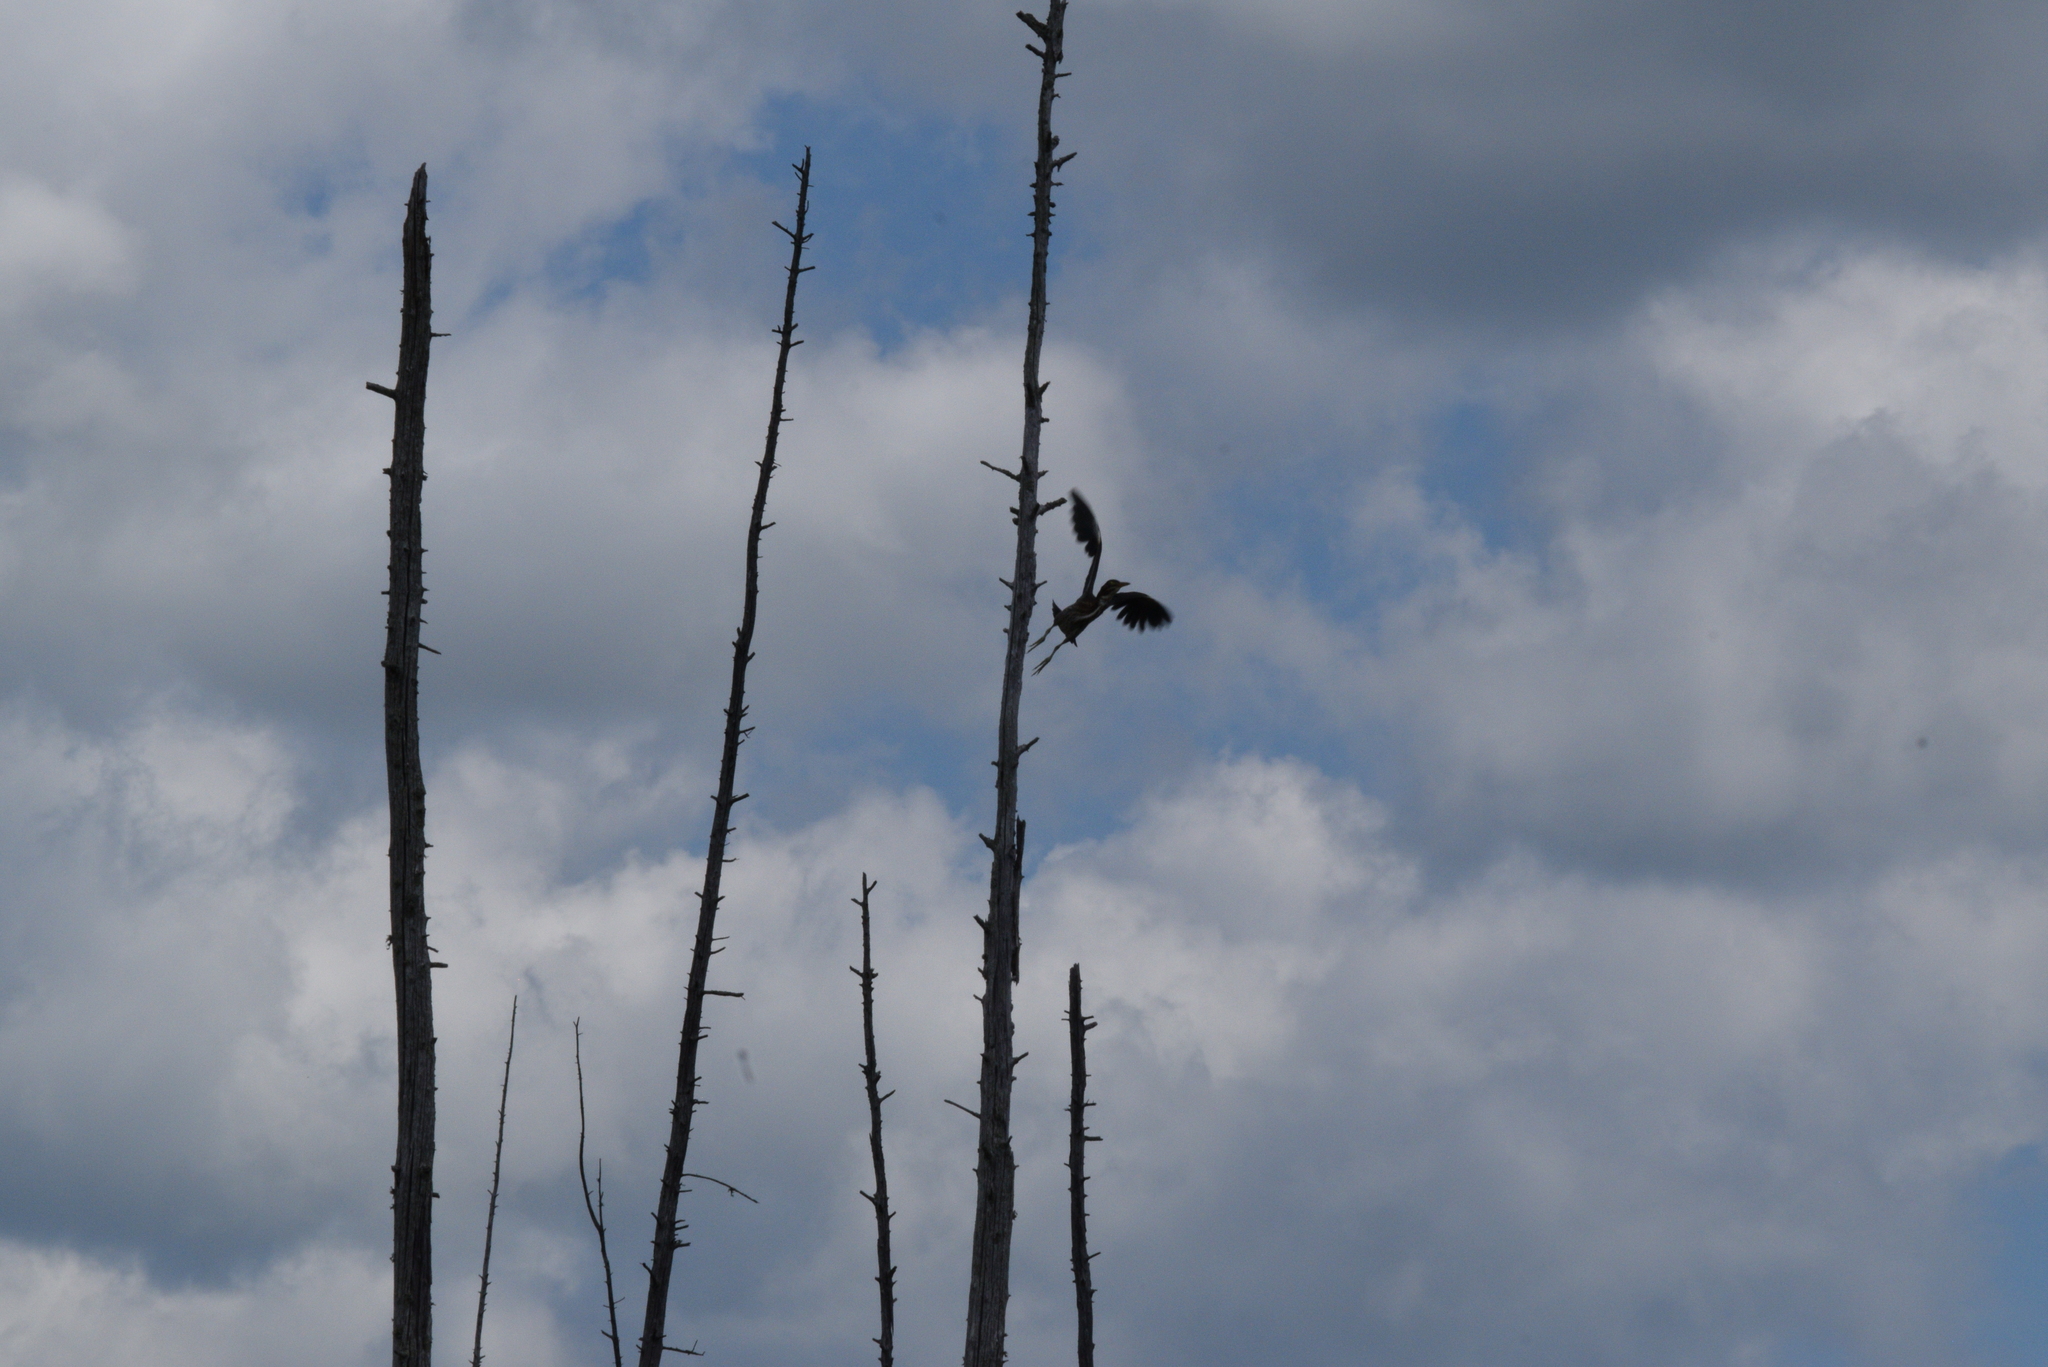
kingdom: Animalia
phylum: Chordata
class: Aves
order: Pelecaniformes
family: Ardeidae
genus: Butorides
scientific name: Butorides virescens
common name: Green heron
